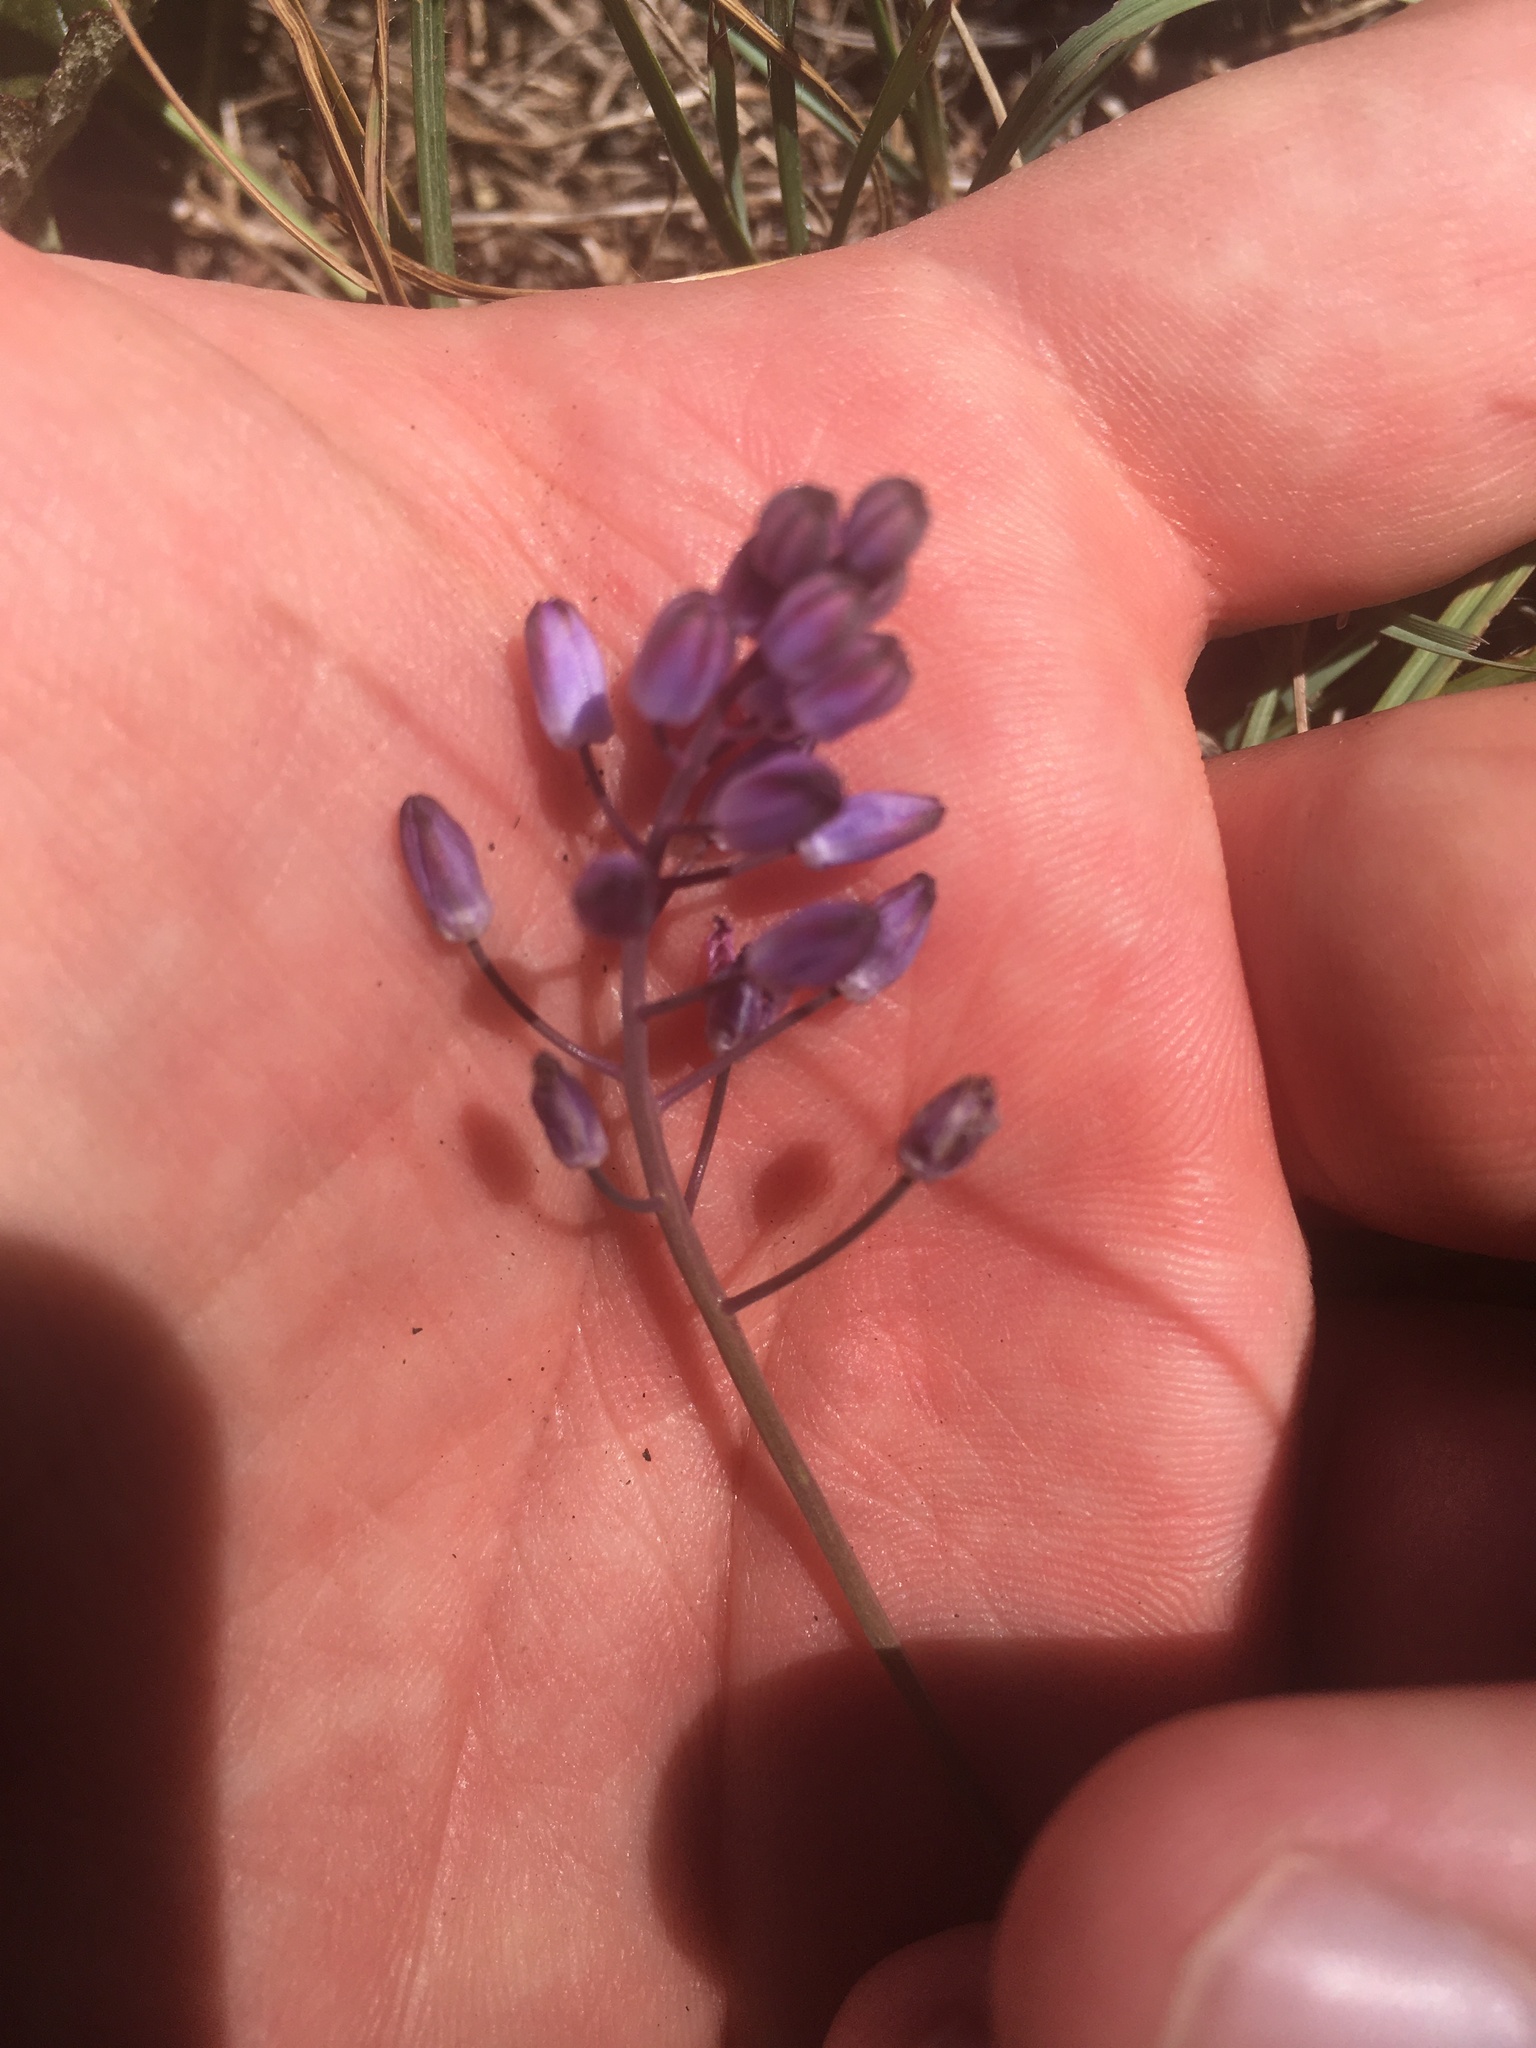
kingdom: Plantae
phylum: Tracheophyta
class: Liliopsida
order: Asparagales
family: Asparagaceae
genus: Prospero
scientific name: Prospero autumnale
